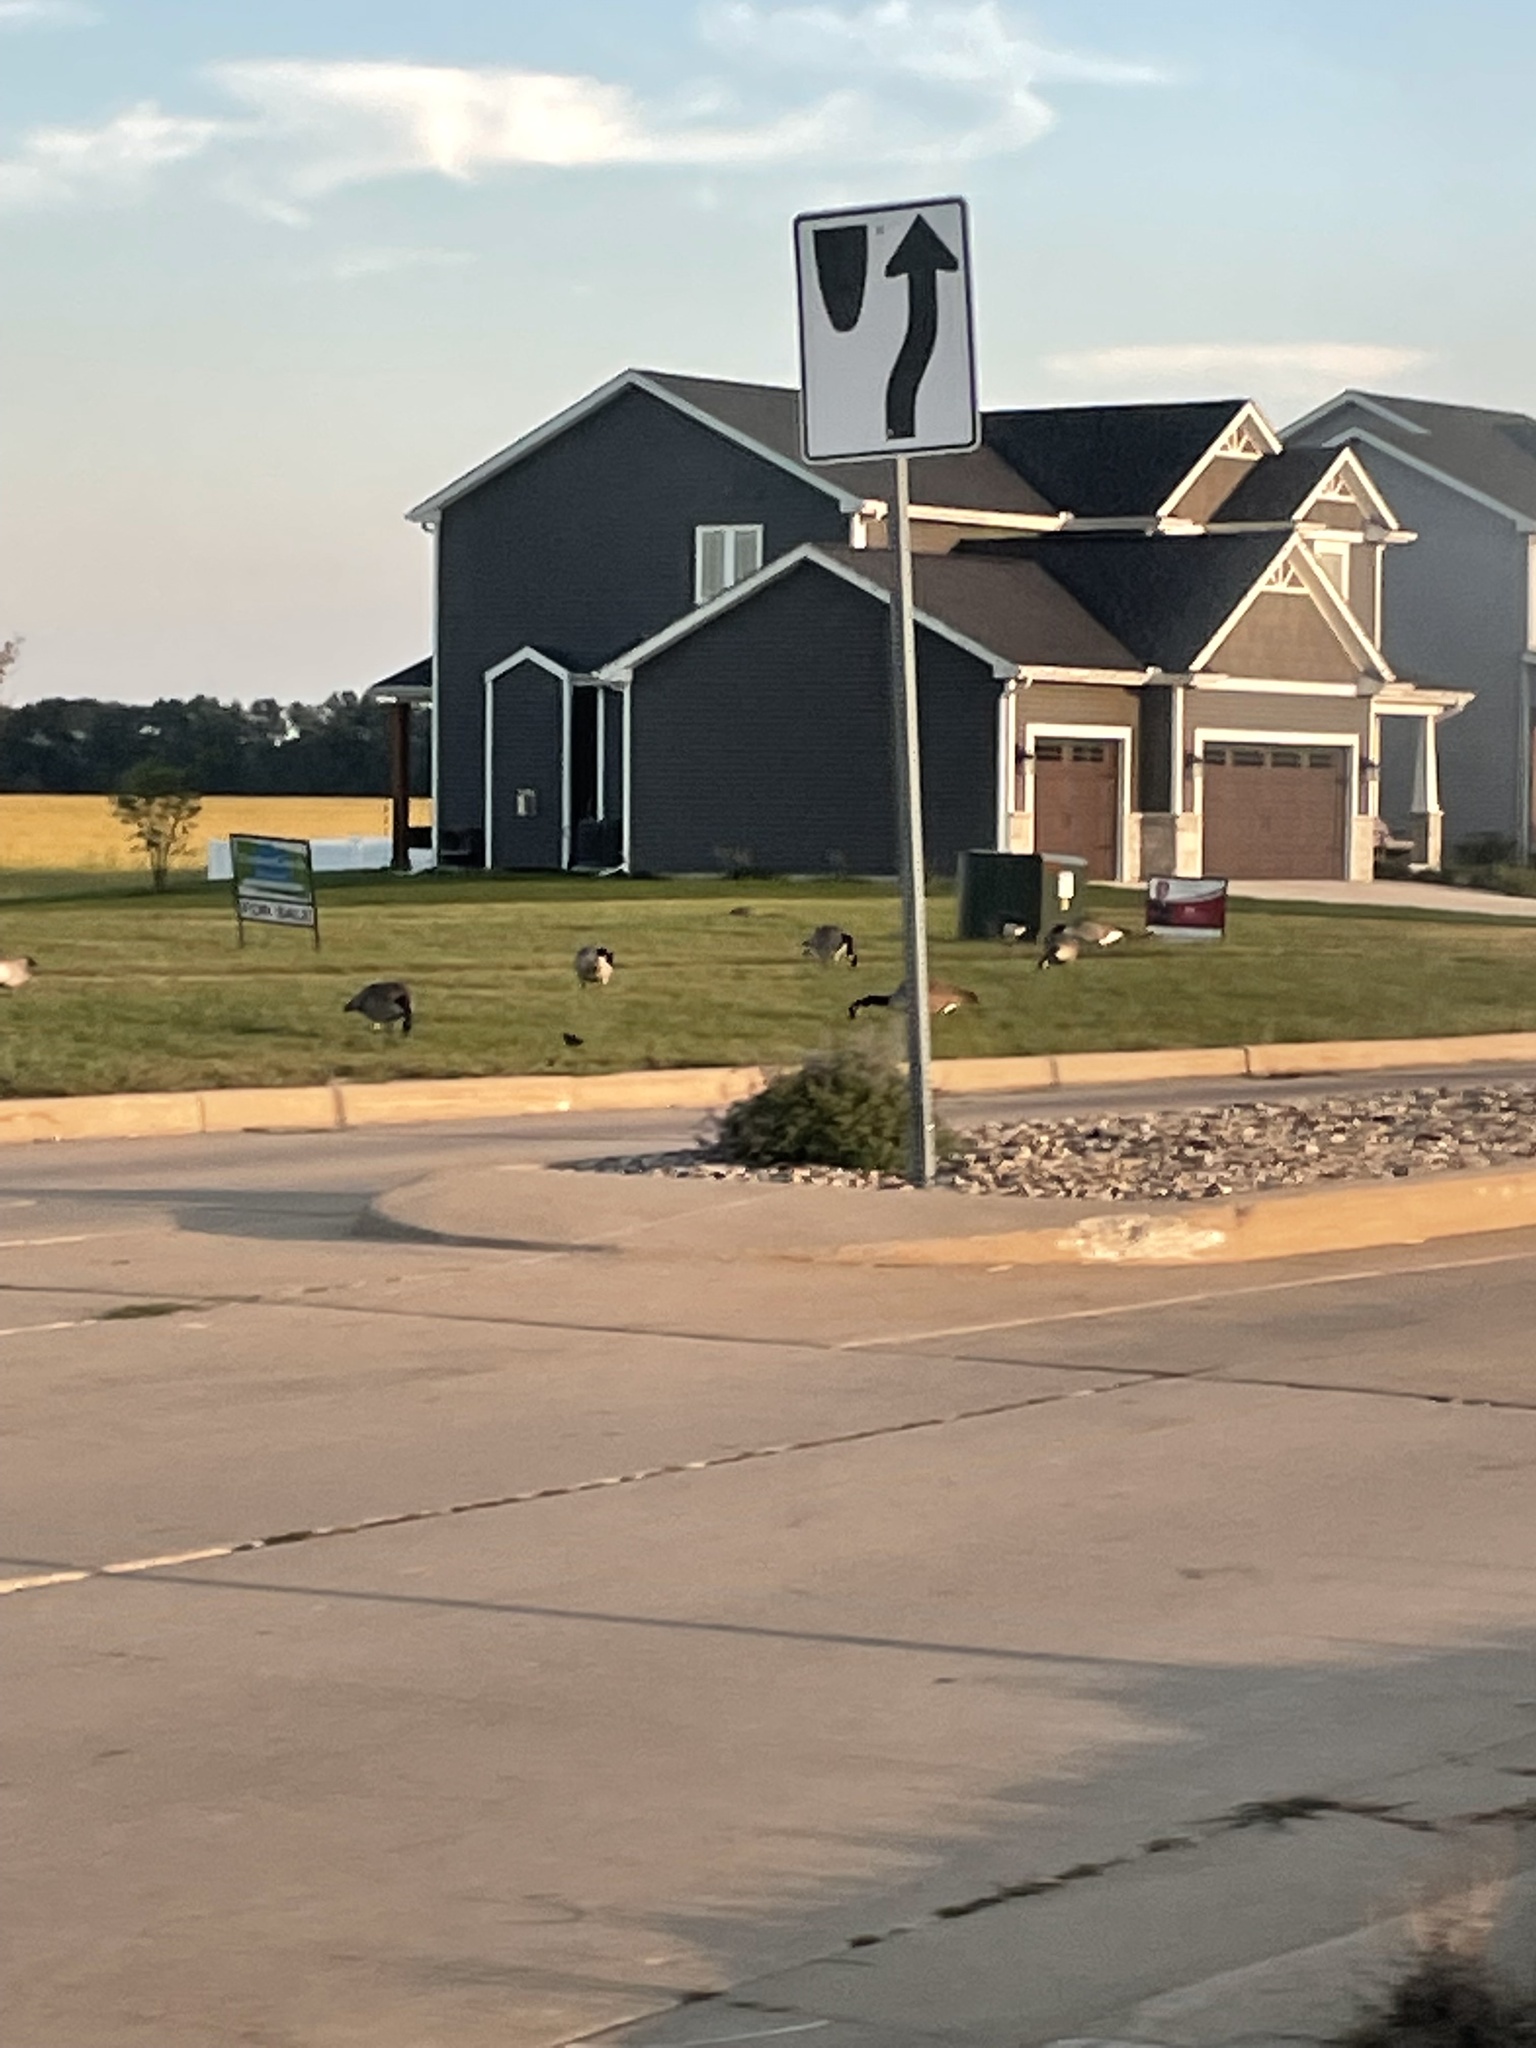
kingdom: Animalia
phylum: Chordata
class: Aves
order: Anseriformes
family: Anatidae
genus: Branta
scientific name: Branta canadensis
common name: Canada goose
